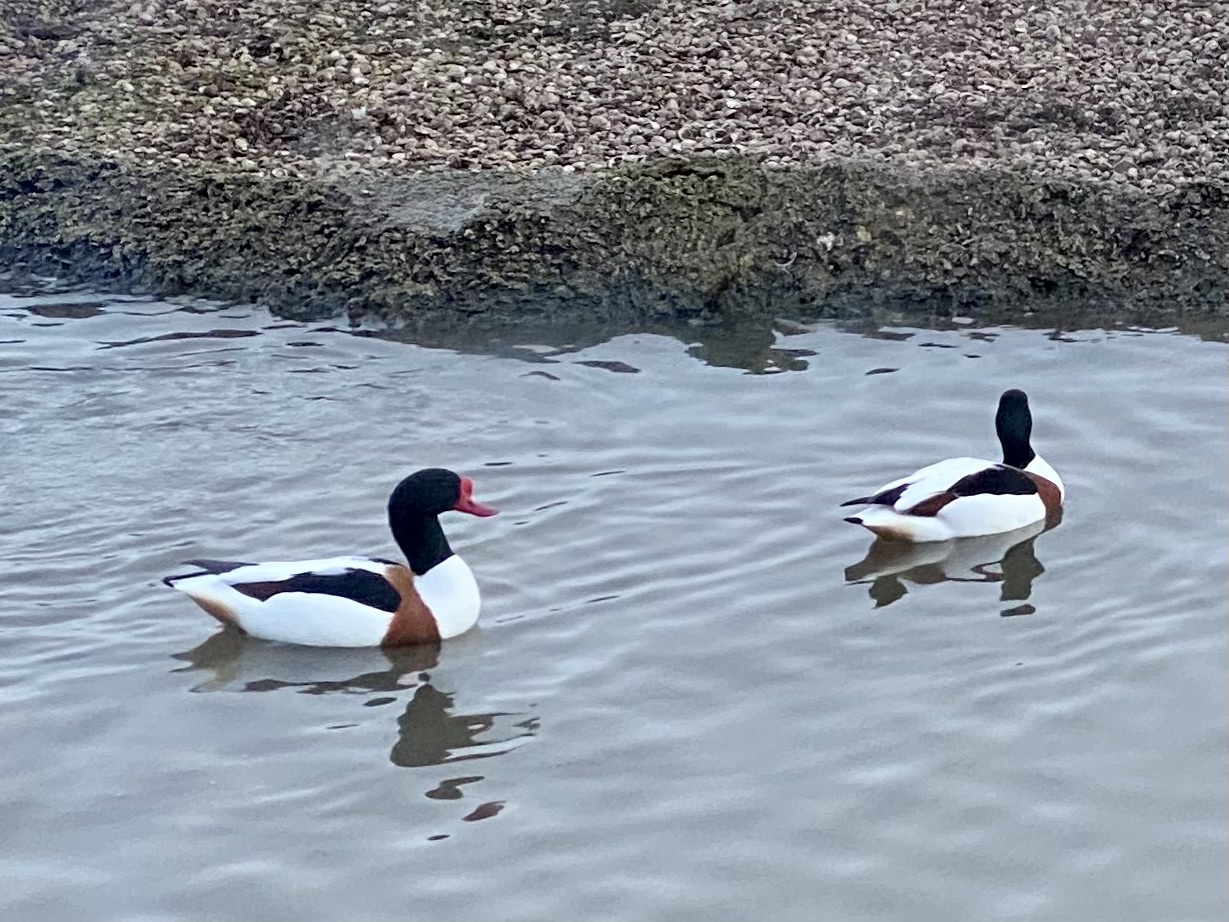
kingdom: Animalia
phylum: Chordata
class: Aves
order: Anseriformes
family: Anatidae
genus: Tadorna
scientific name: Tadorna tadorna
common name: Common shelduck
